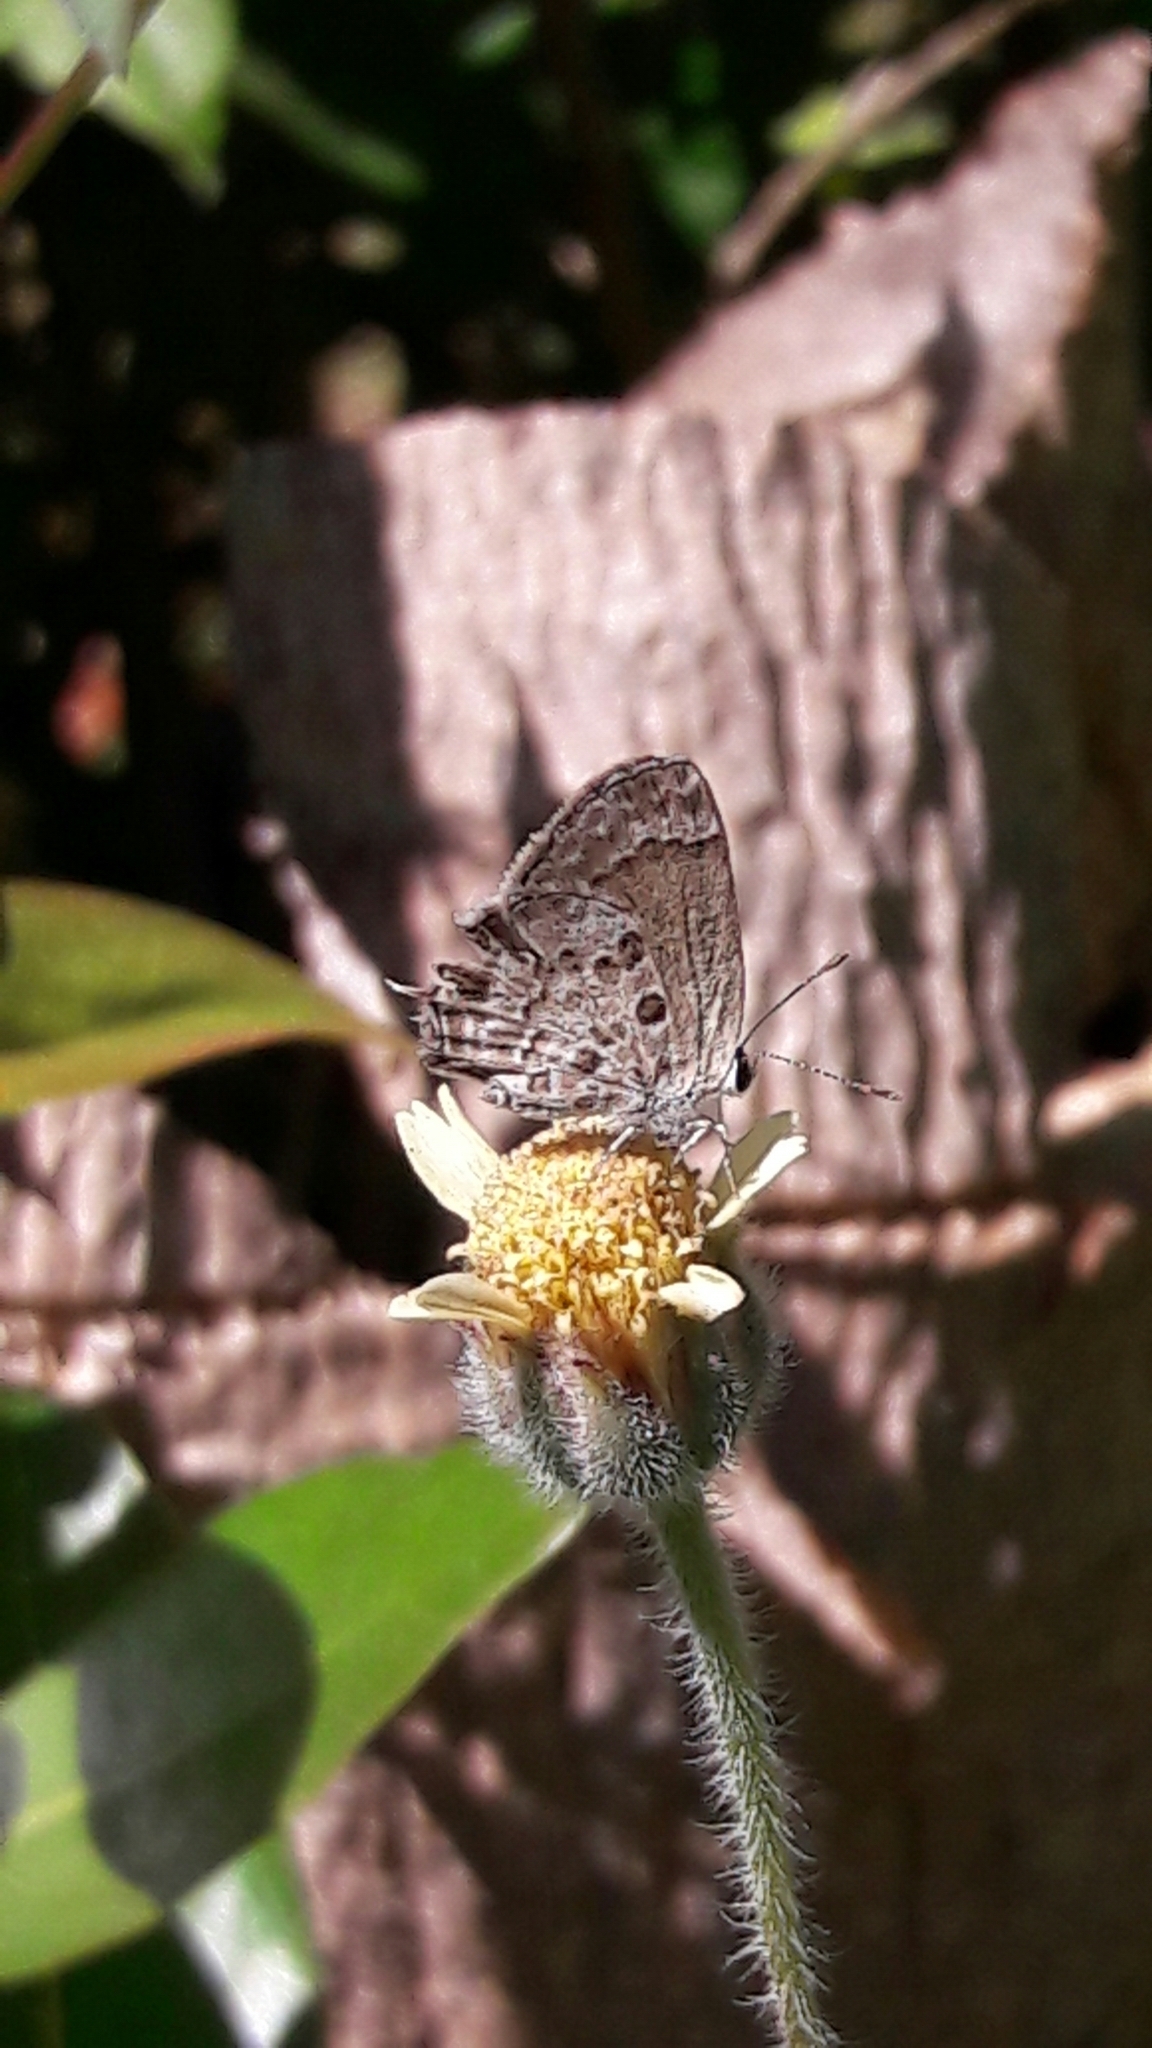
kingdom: Animalia
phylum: Arthropoda
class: Insecta
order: Lepidoptera
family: Lycaenidae
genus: Strymon
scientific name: Strymon astiocha
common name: Gray-spotted scrub-hairstreak
